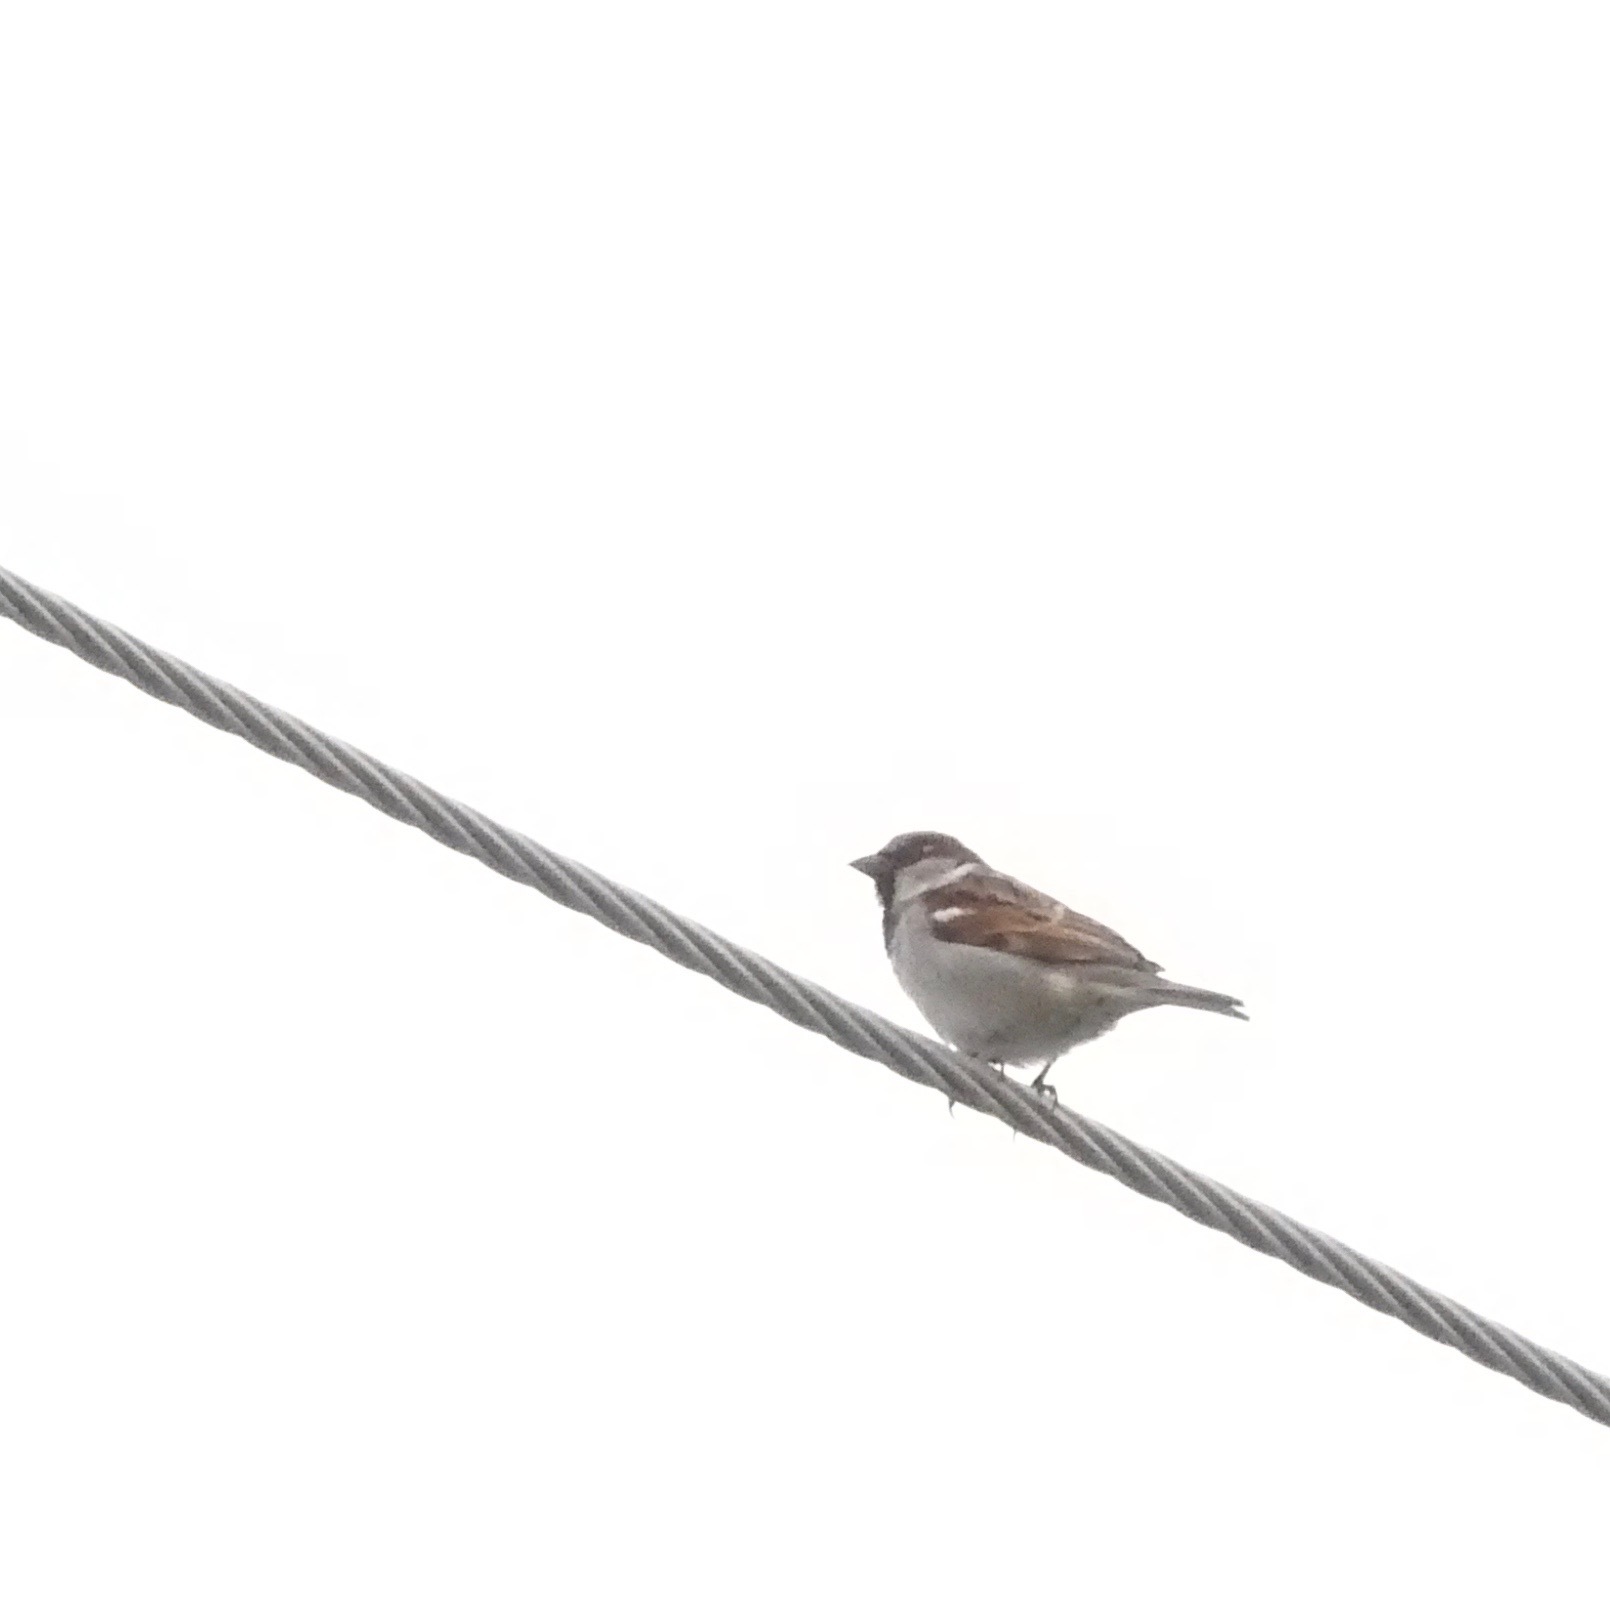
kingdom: Animalia
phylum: Chordata
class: Aves
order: Passeriformes
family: Passeridae
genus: Passer
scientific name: Passer domesticus
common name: House sparrow
